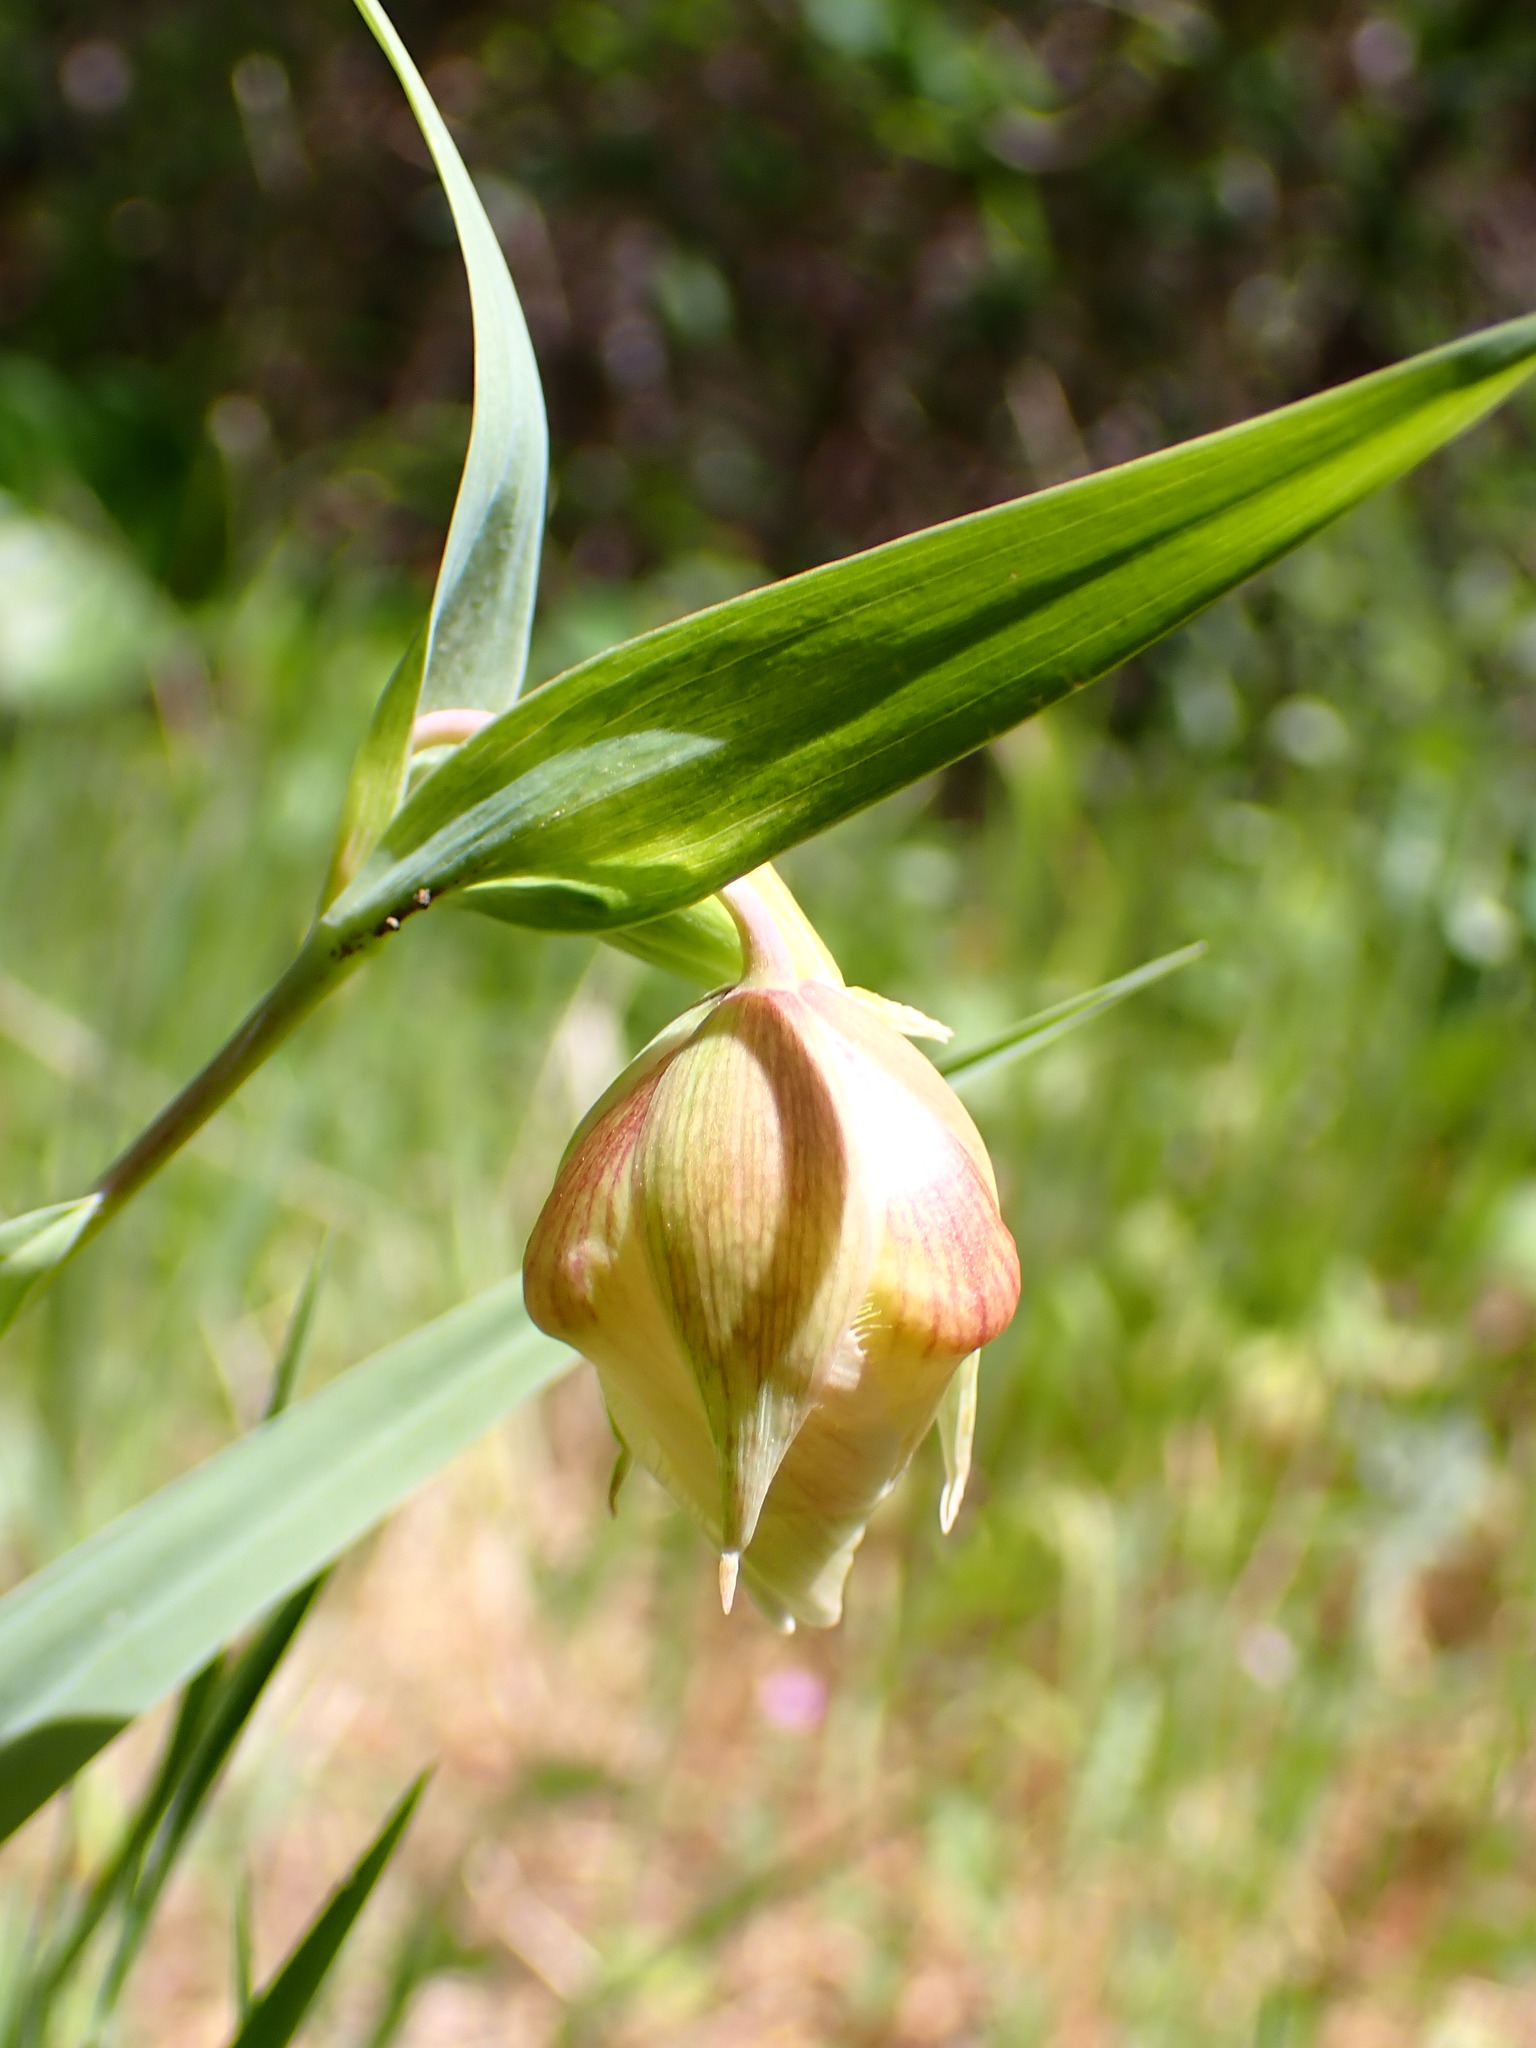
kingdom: Plantae
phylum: Tracheophyta
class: Liliopsida
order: Liliales
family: Liliaceae
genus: Calochortus
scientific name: Calochortus albus
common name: Fairy-lantern
